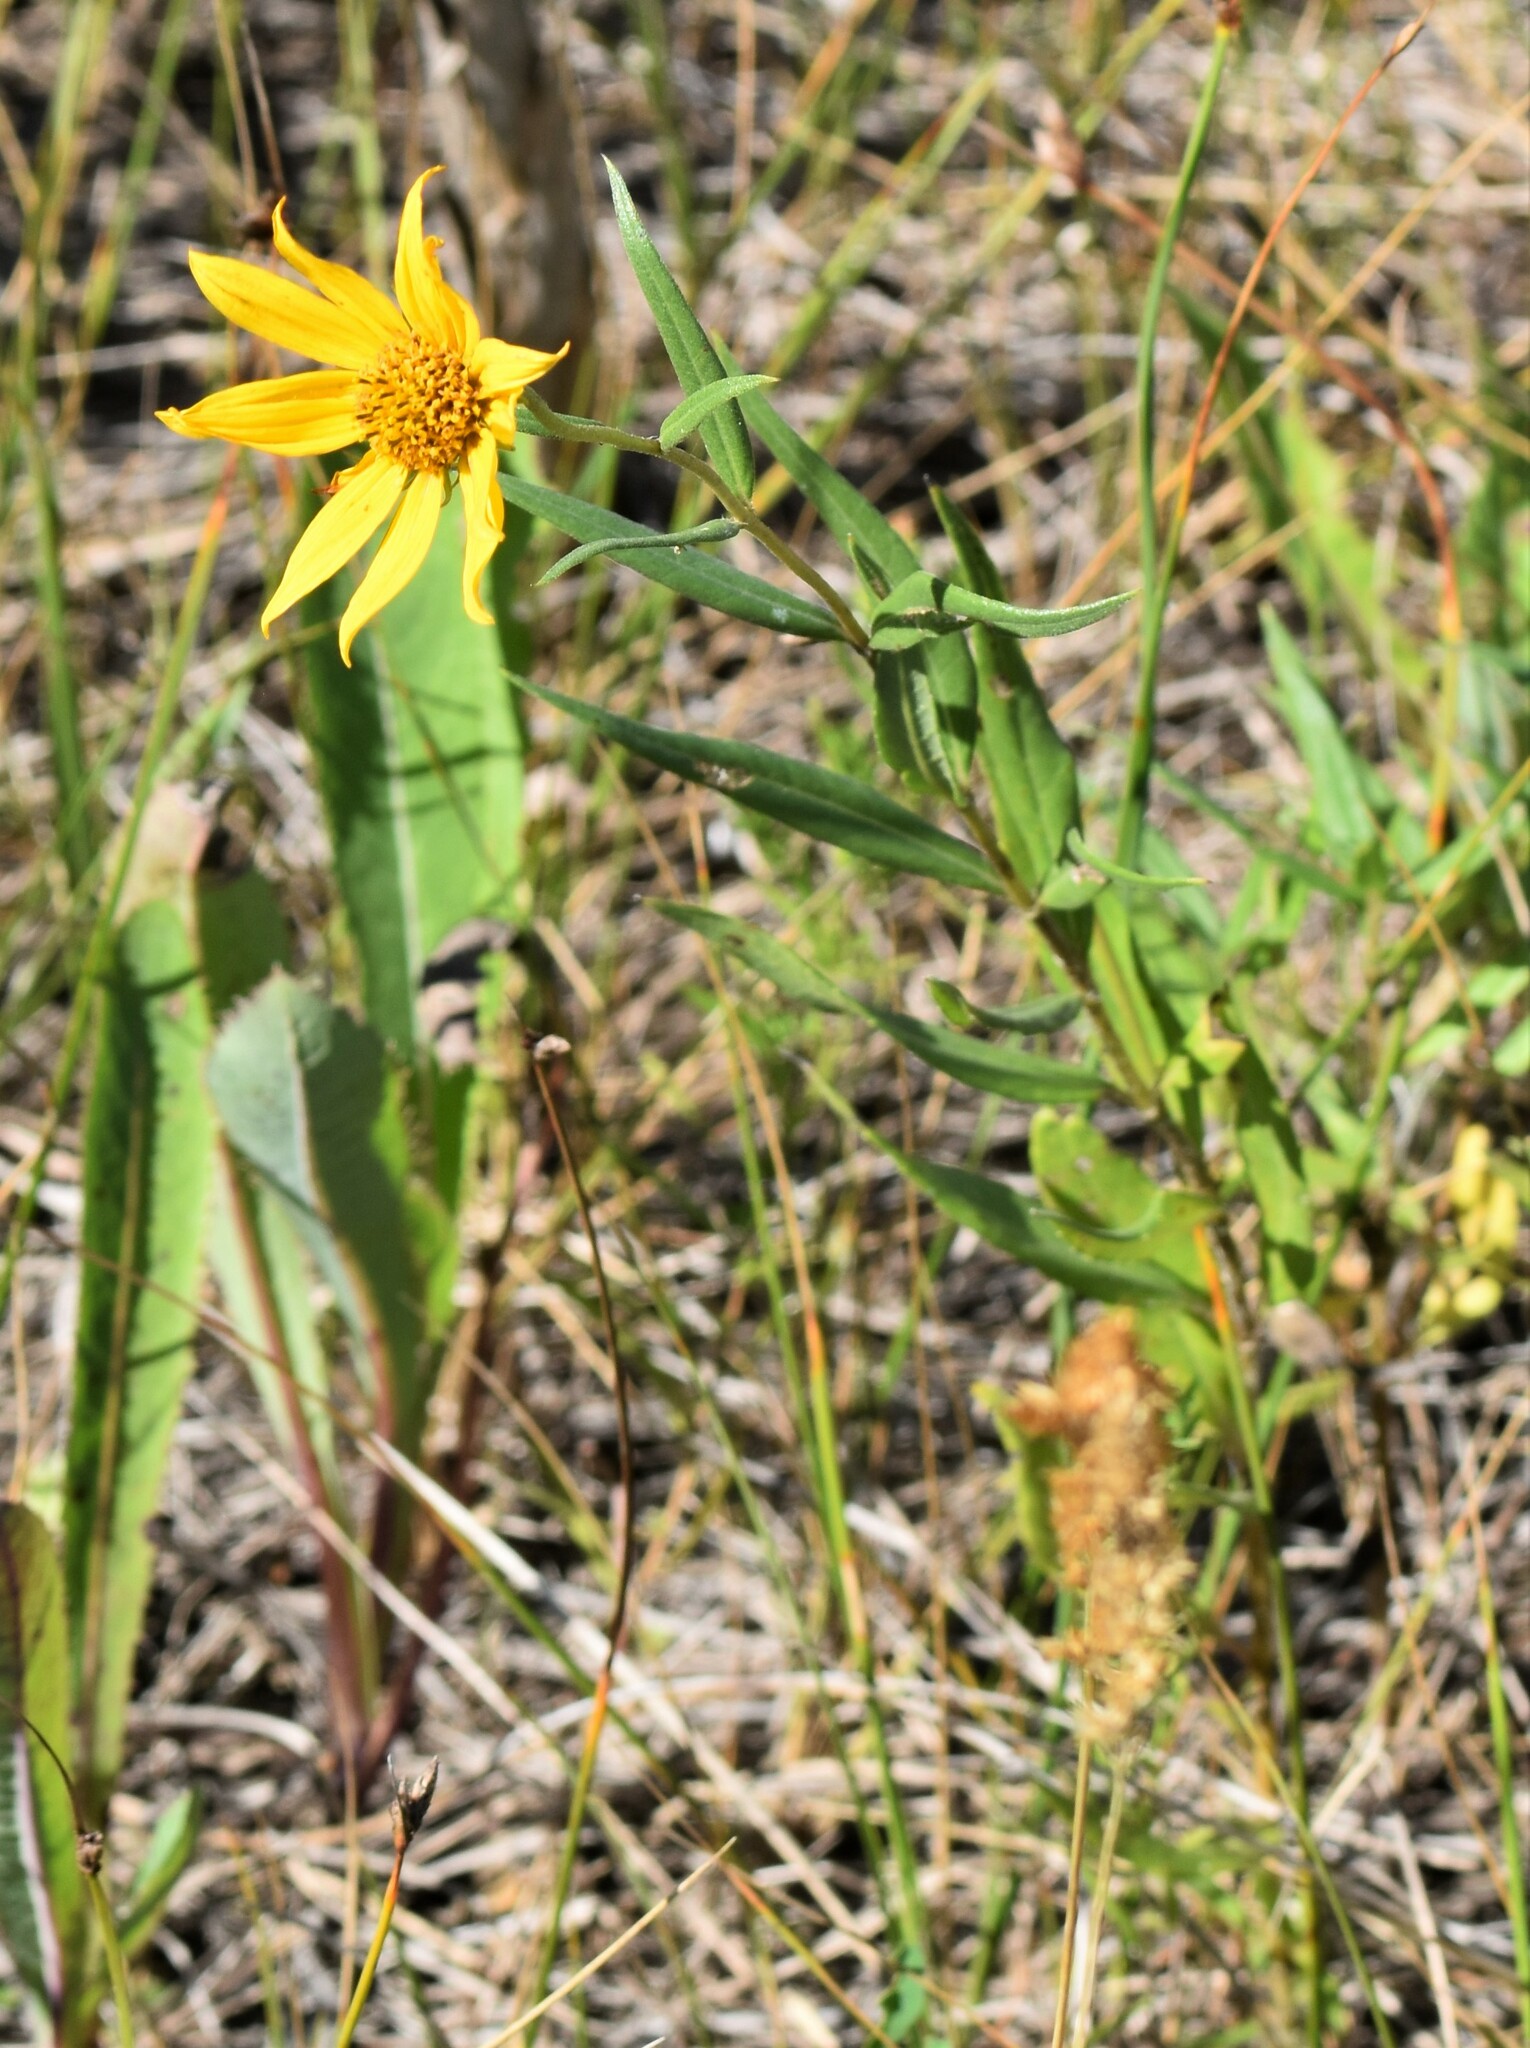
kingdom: Plantae
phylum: Tracheophyta
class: Magnoliopsida
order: Asterales
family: Asteraceae
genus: Helianthus
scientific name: Helianthus nuttallii
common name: Nuttall's sunflower
